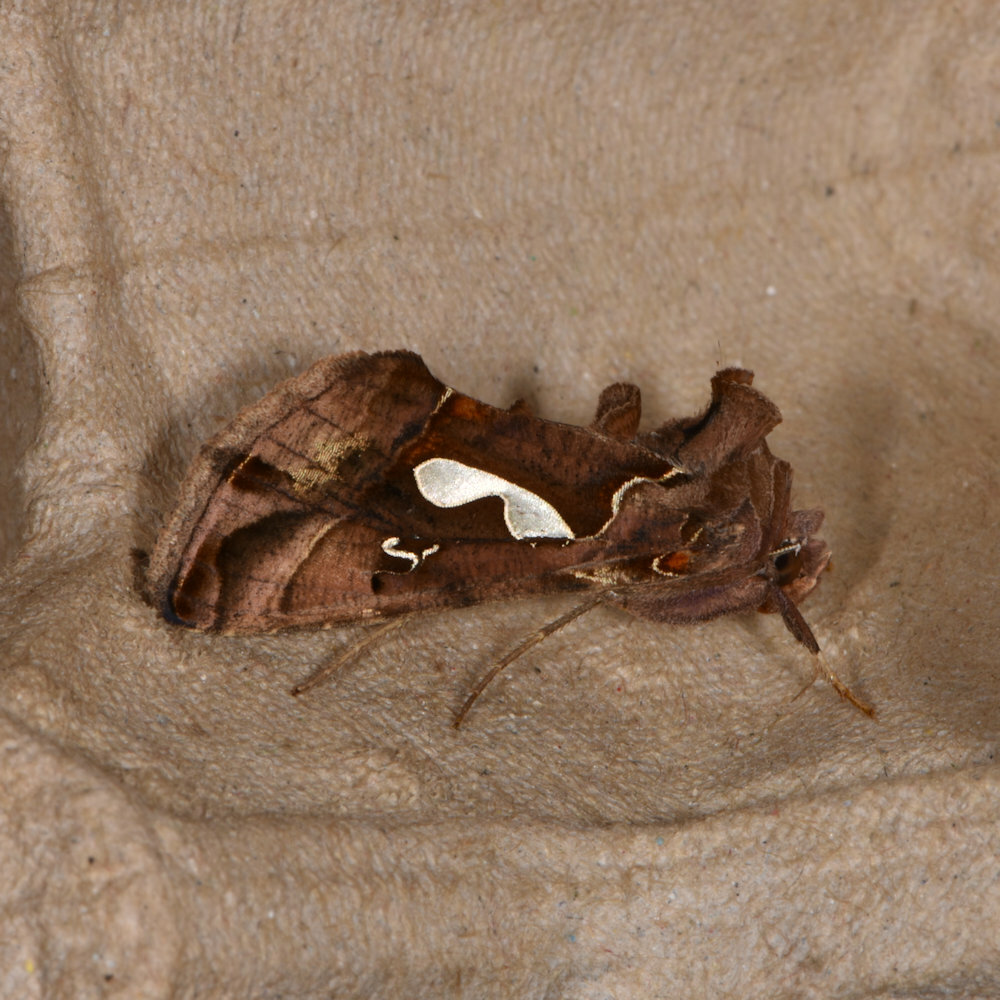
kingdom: Animalia
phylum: Arthropoda
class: Insecta
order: Lepidoptera
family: Noctuidae
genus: Megalographa
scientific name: Megalographa biloba
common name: Cutworm
